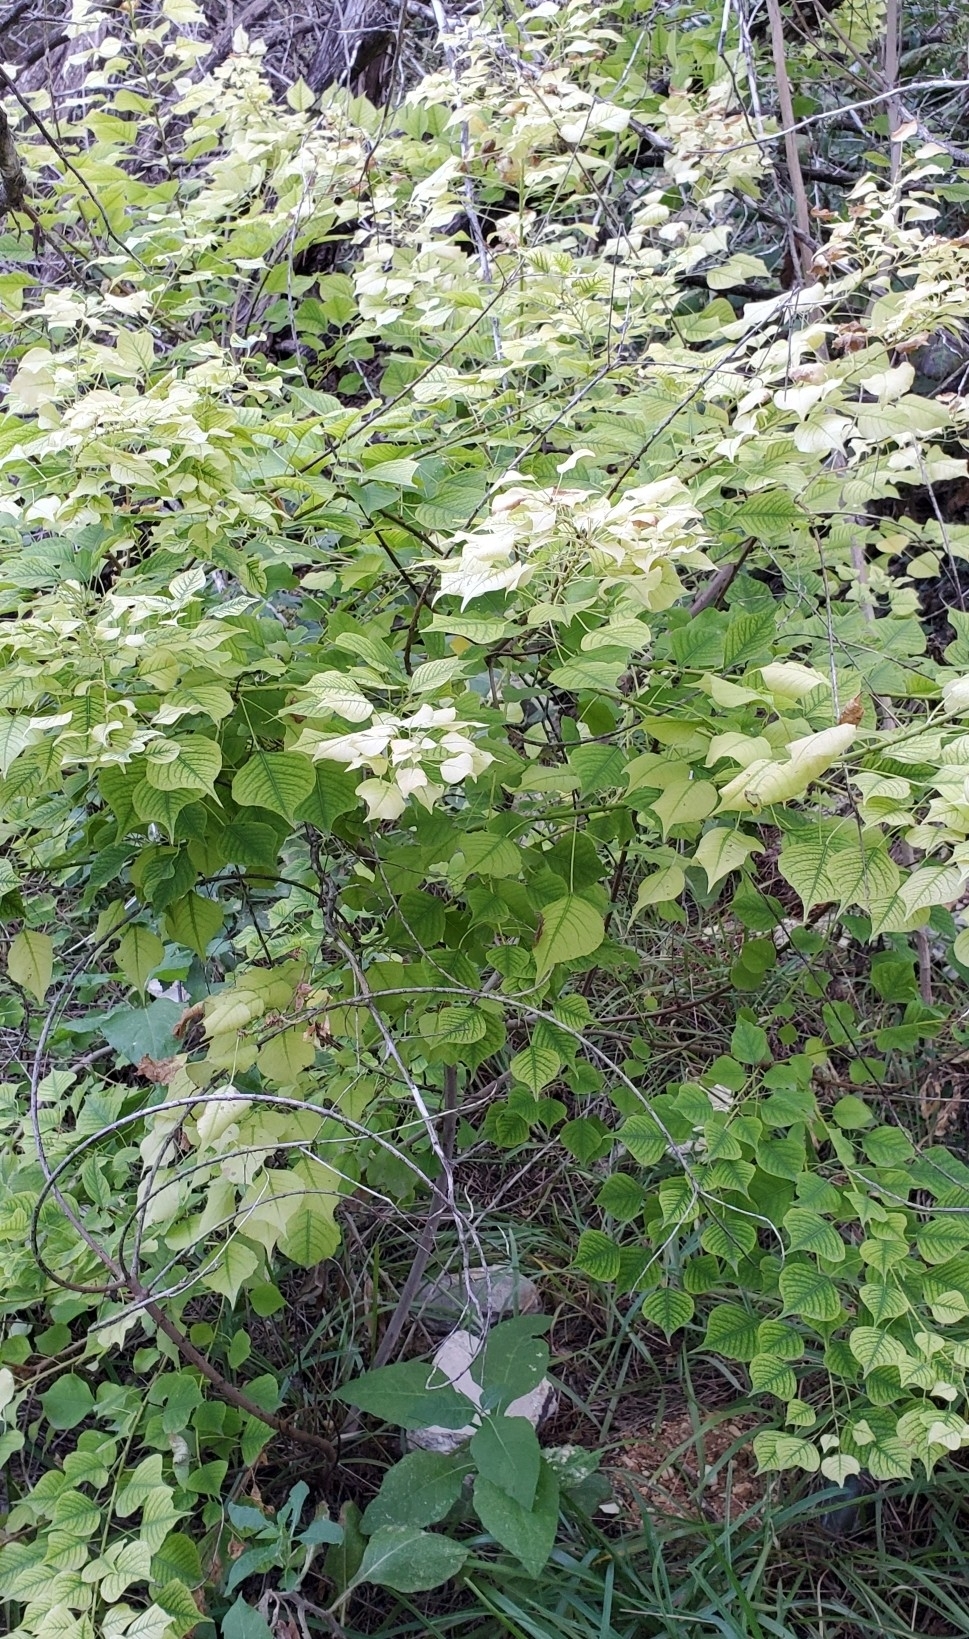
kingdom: Plantae
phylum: Tracheophyta
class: Magnoliopsida
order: Malpighiales
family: Euphorbiaceae
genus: Triadica
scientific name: Triadica sebifera
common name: Chinese tallow
